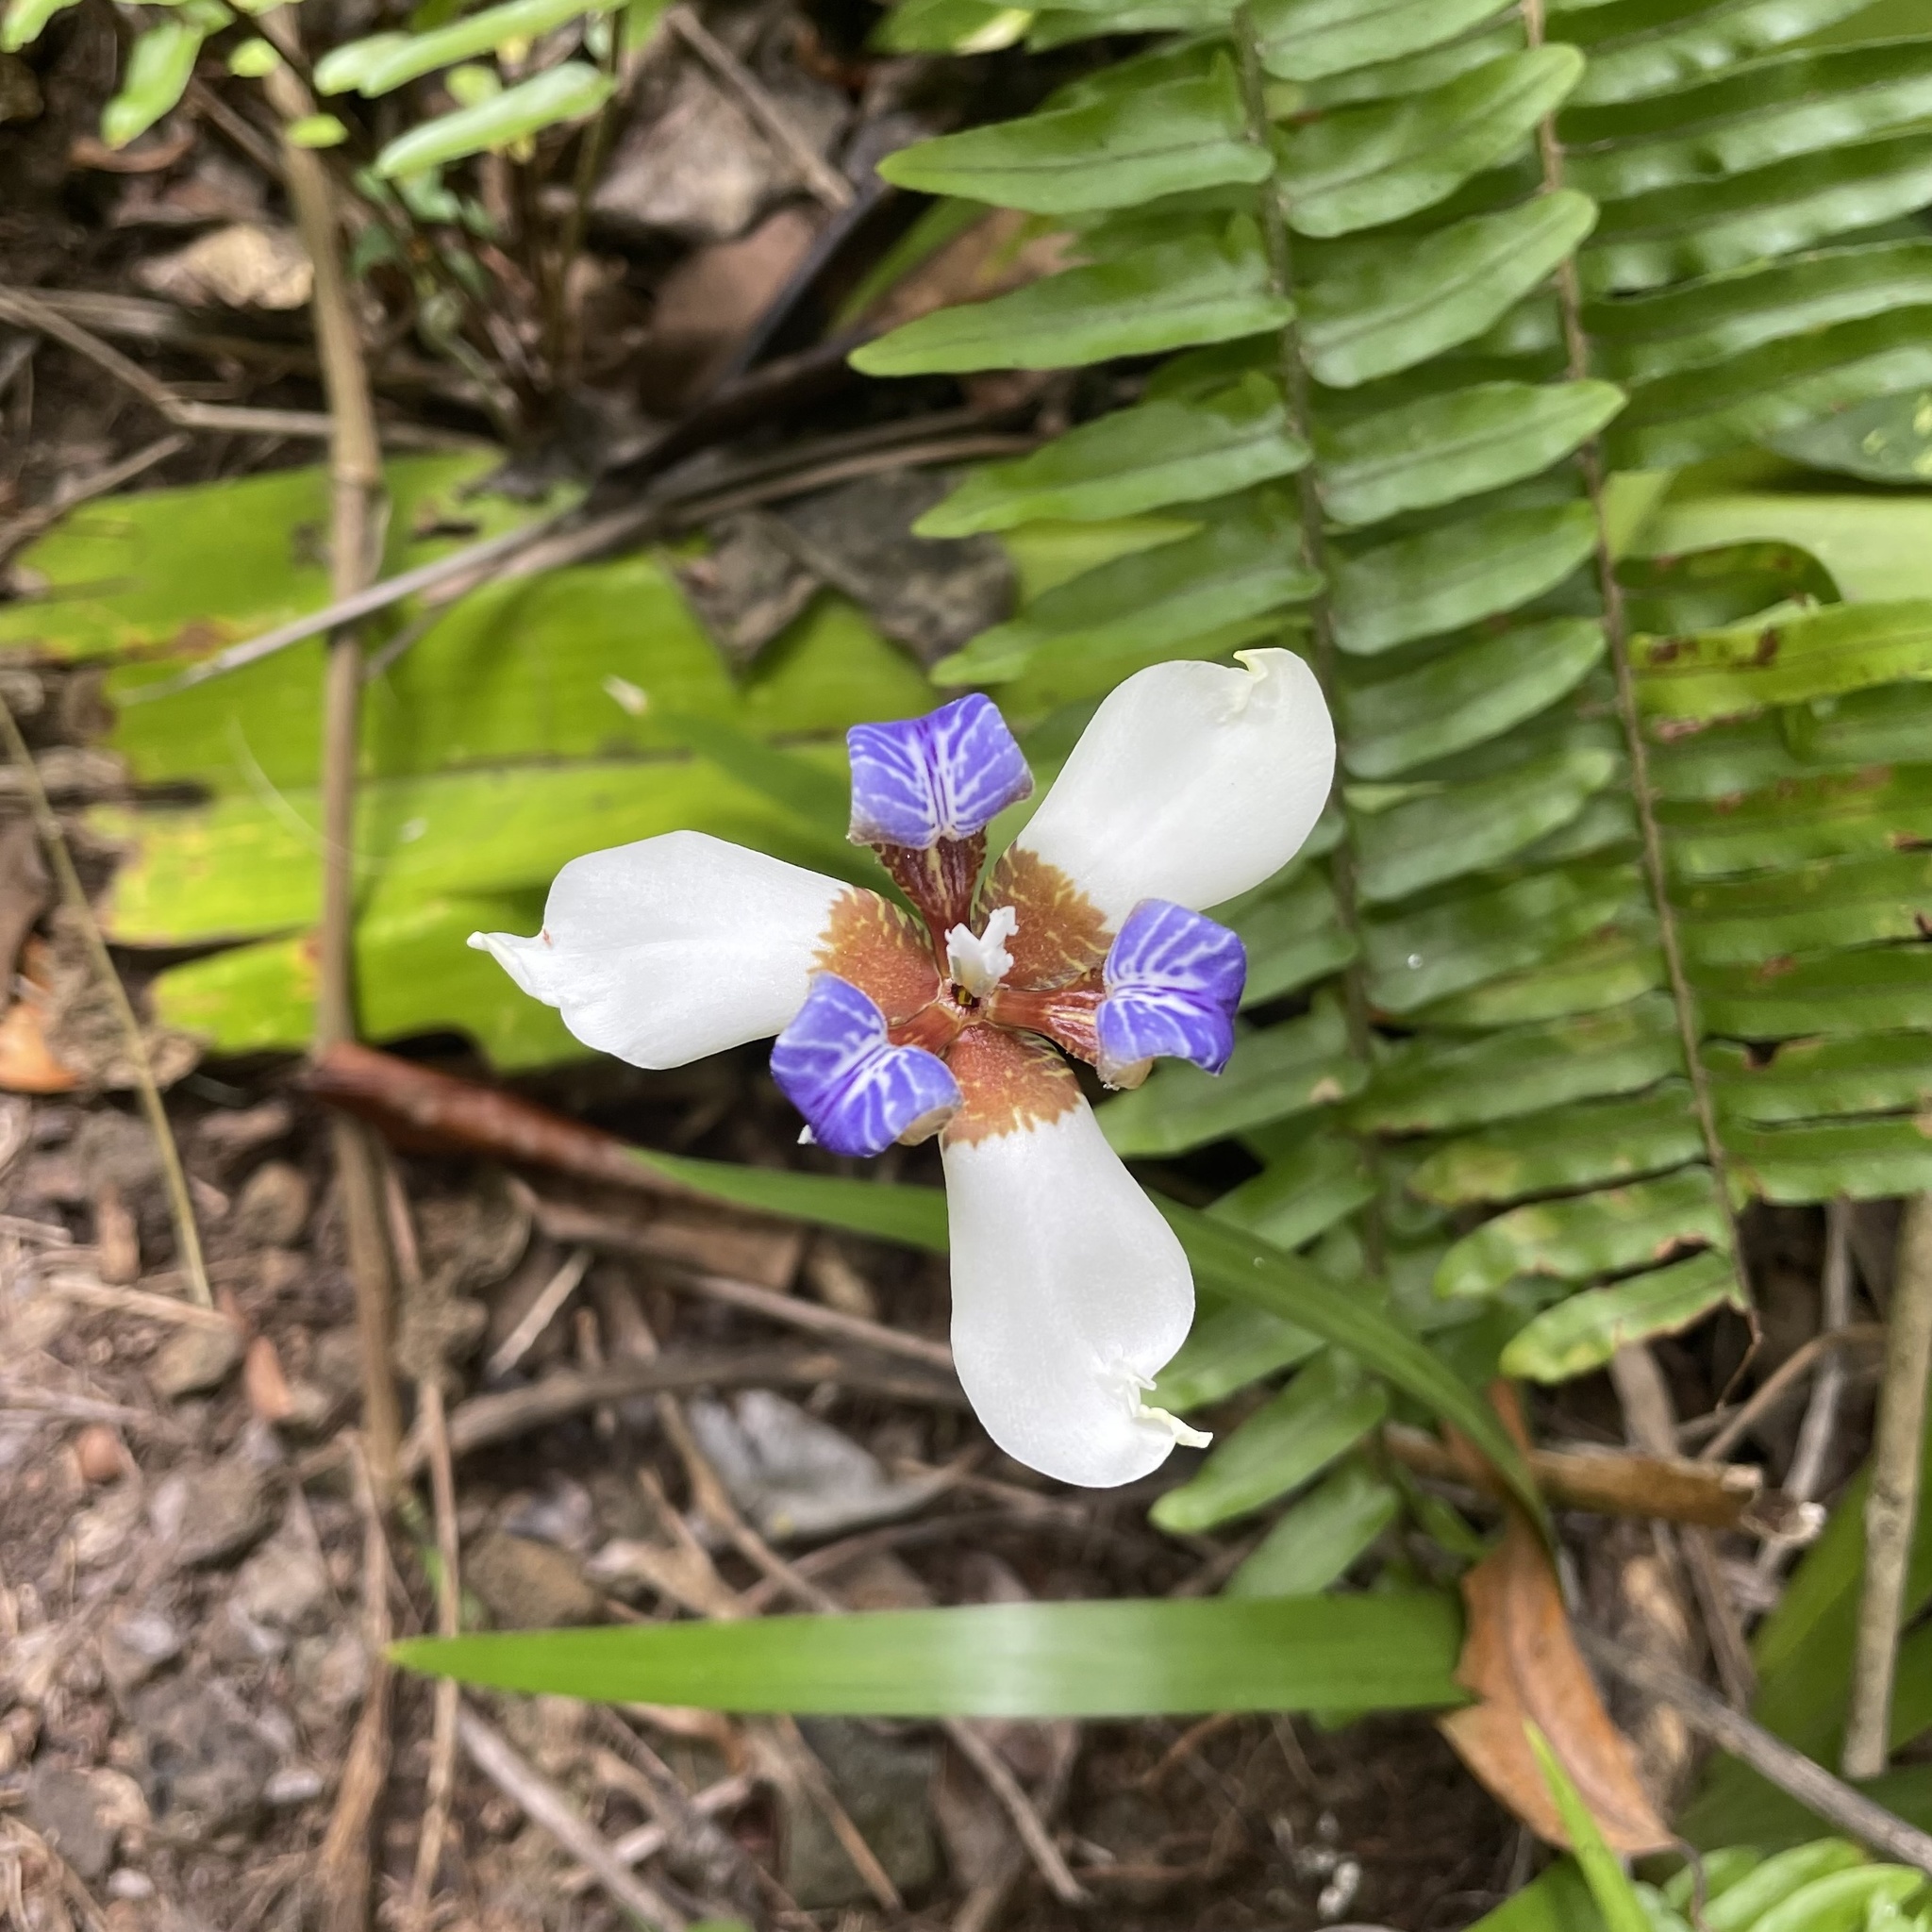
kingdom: Plantae
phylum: Tracheophyta
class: Liliopsida
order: Asparagales
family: Iridaceae
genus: Trimezia
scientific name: Trimezia gracilis
